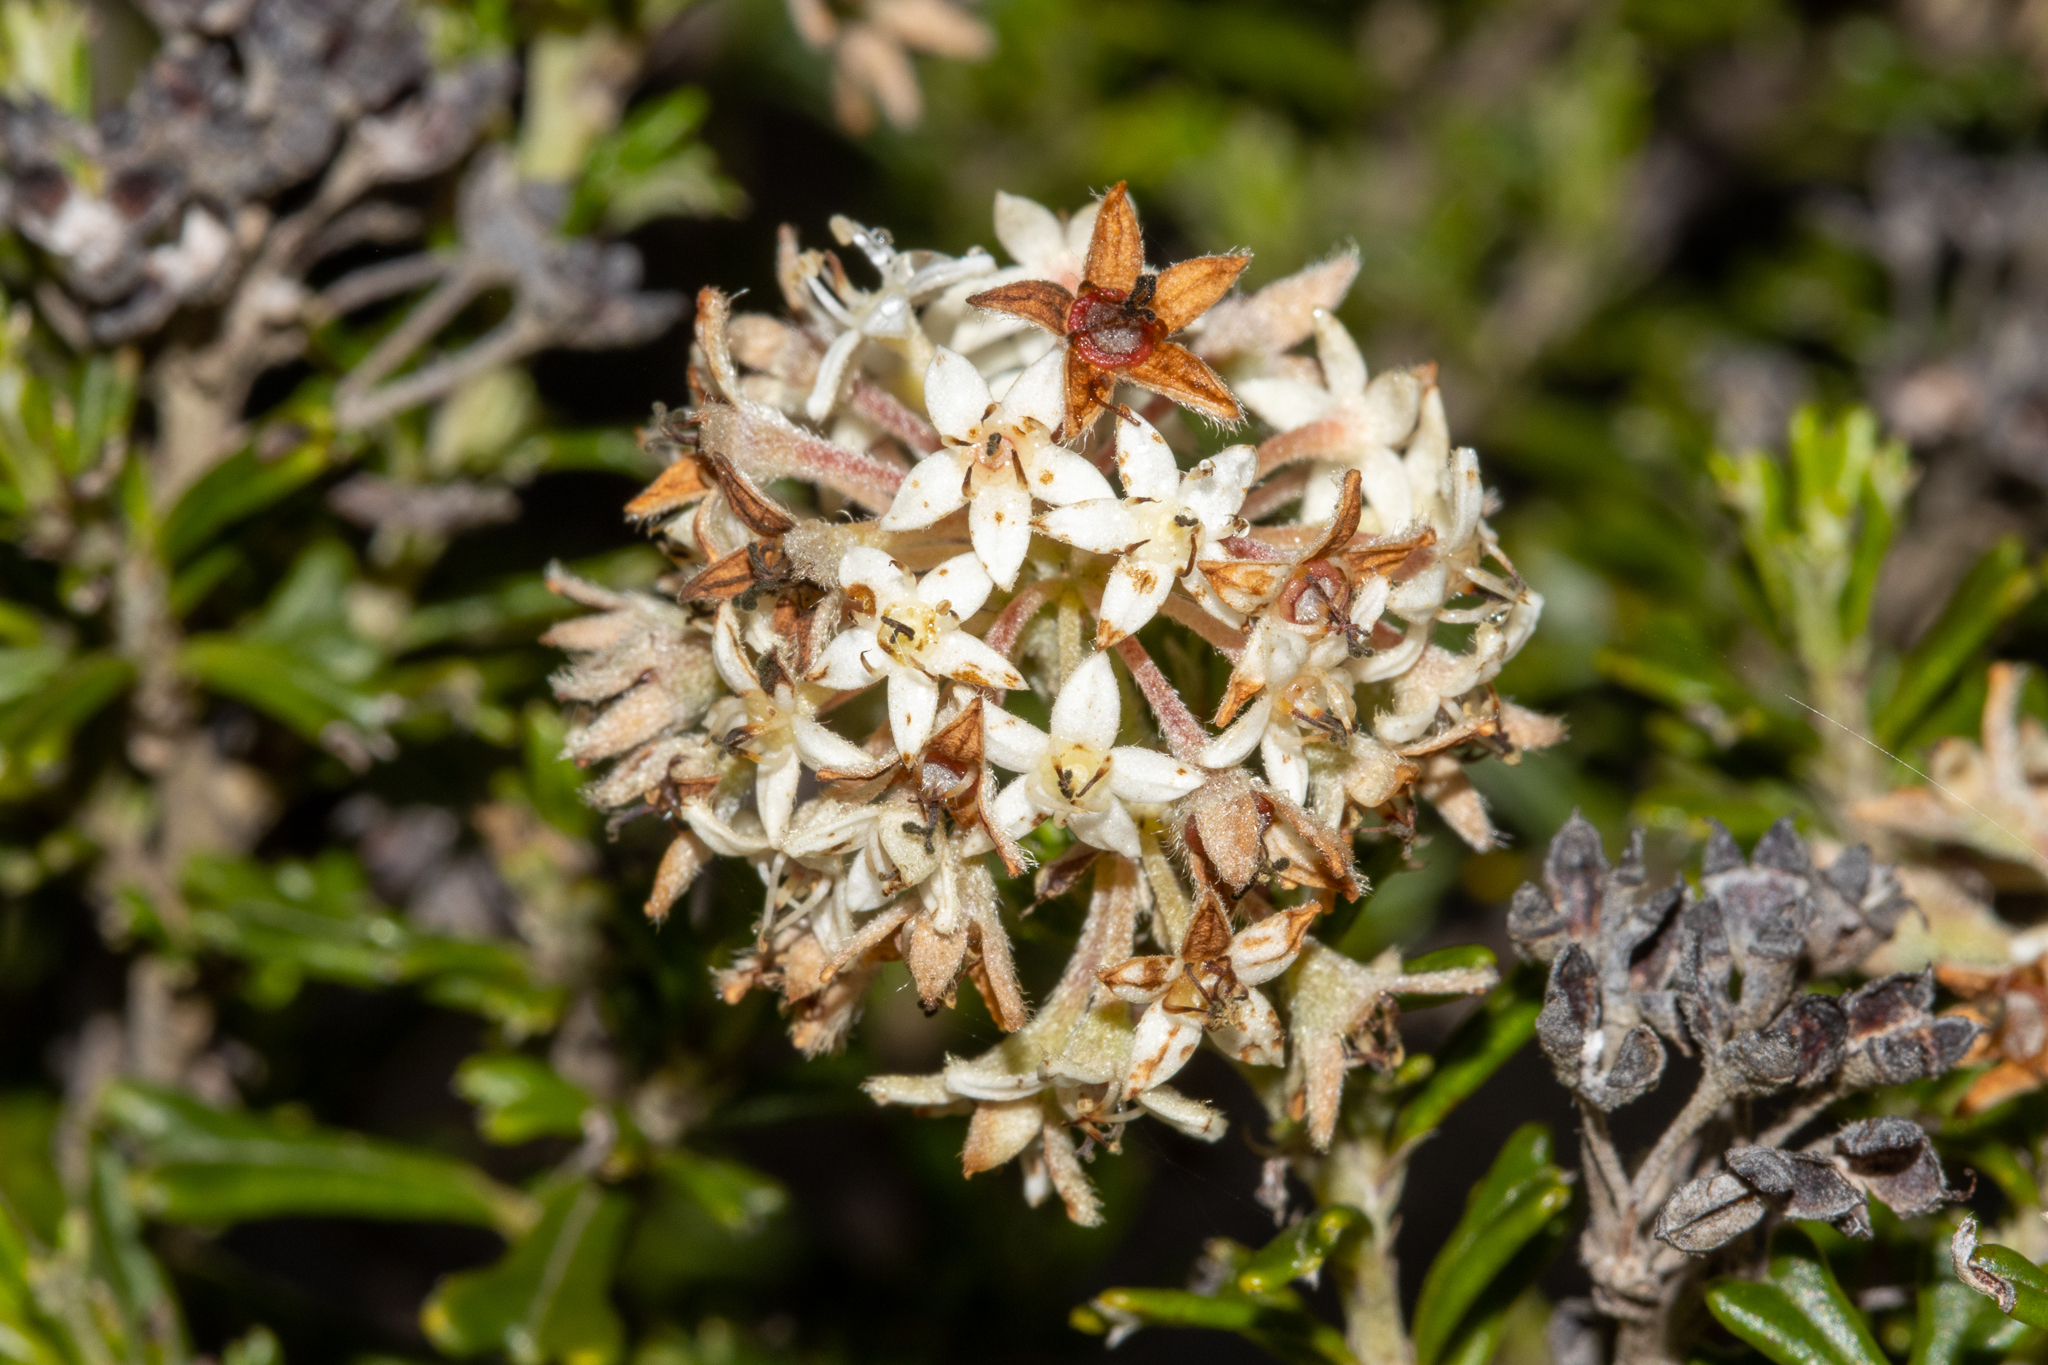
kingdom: Plantae
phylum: Tracheophyta
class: Magnoliopsida
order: Rosales
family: Rhamnaceae
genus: Pomaderris
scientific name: Pomaderris obcordata
